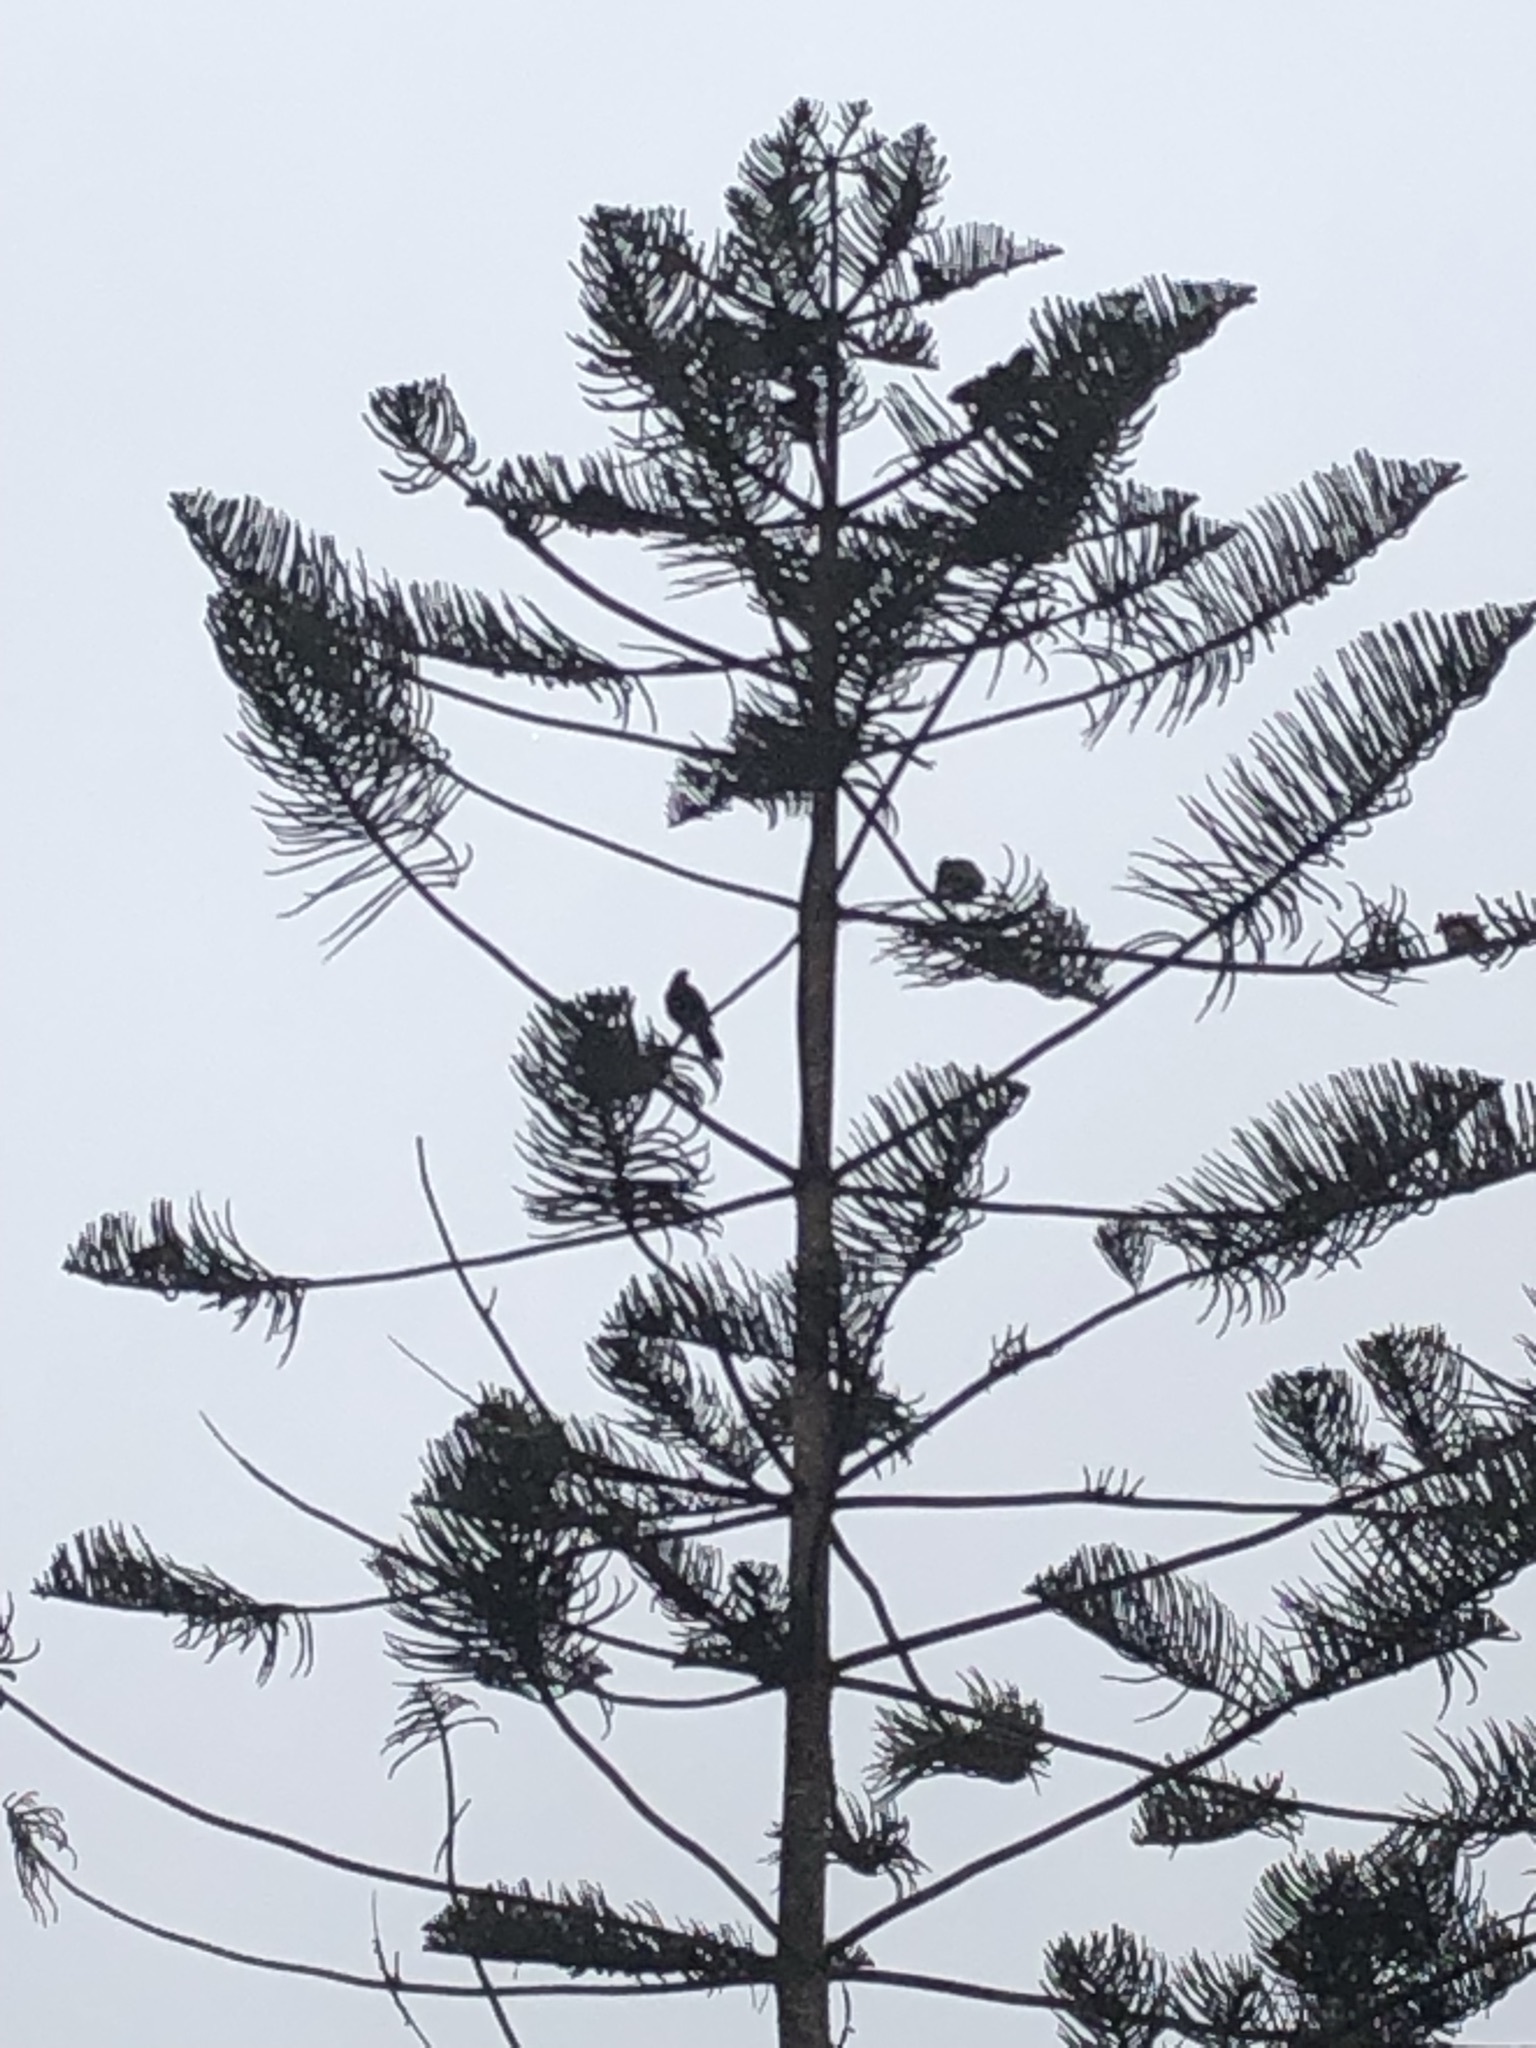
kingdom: Animalia
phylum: Chordata
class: Aves
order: Accipitriformes
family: Accipitridae
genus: Parabuteo
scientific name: Parabuteo unicinctus
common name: Harris's hawk
